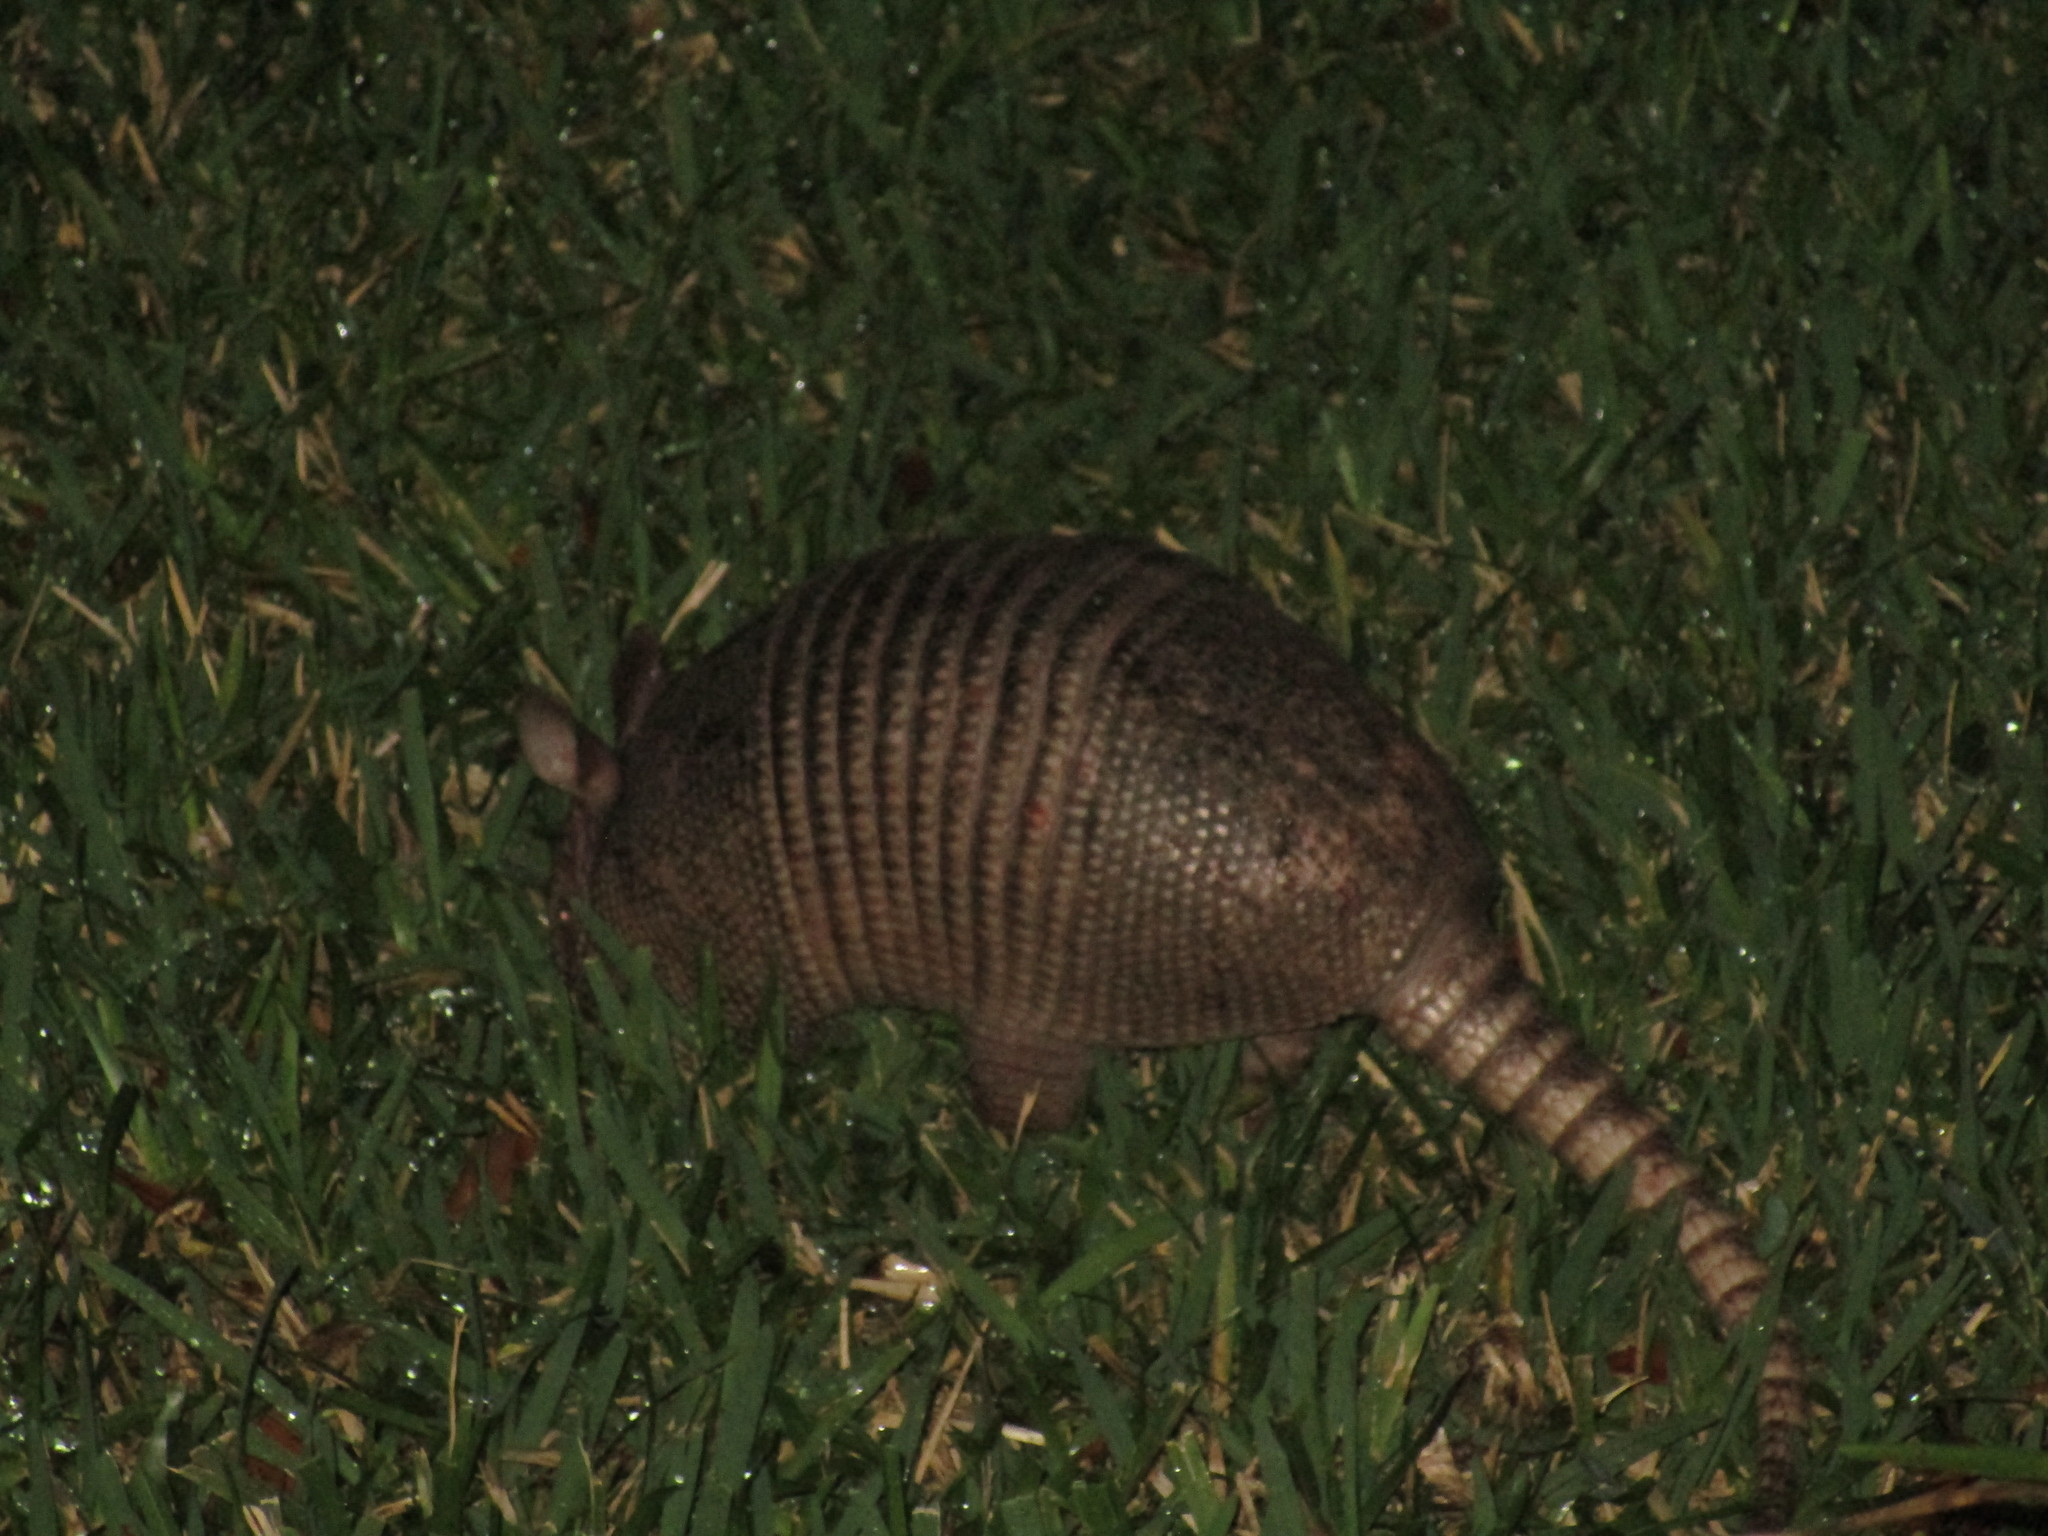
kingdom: Animalia
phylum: Chordata
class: Mammalia
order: Cingulata
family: Dasypodidae
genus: Dasypus
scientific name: Dasypus novemcinctus
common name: Nine-banded armadillo
